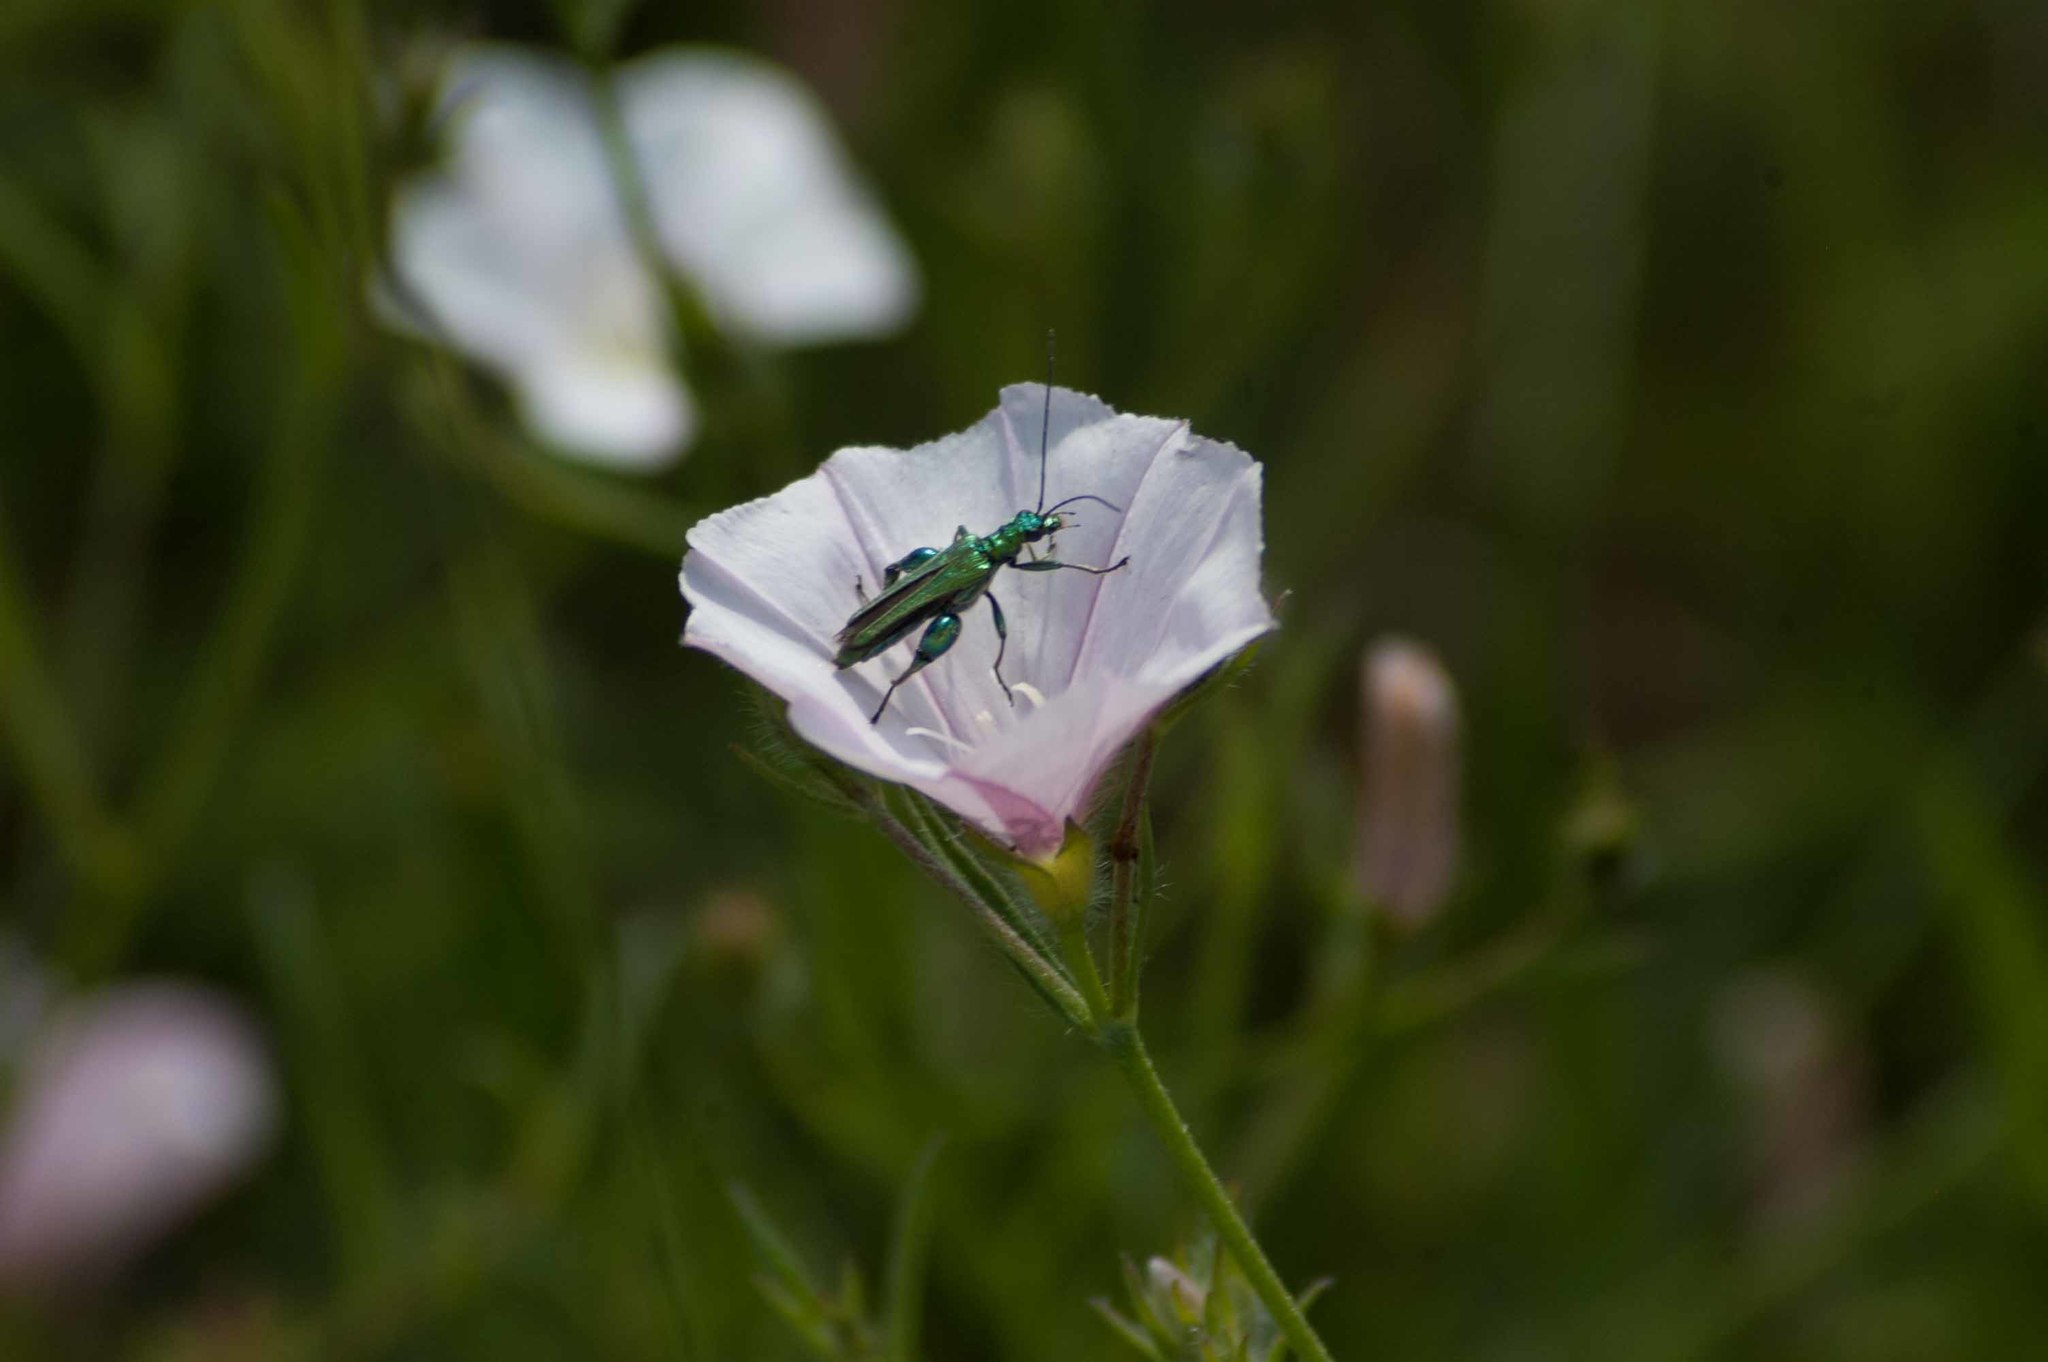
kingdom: Animalia
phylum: Arthropoda
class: Insecta
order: Coleoptera
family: Oedemeridae
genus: Oedemera
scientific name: Oedemera nobilis
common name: Swollen-thighed beetle
